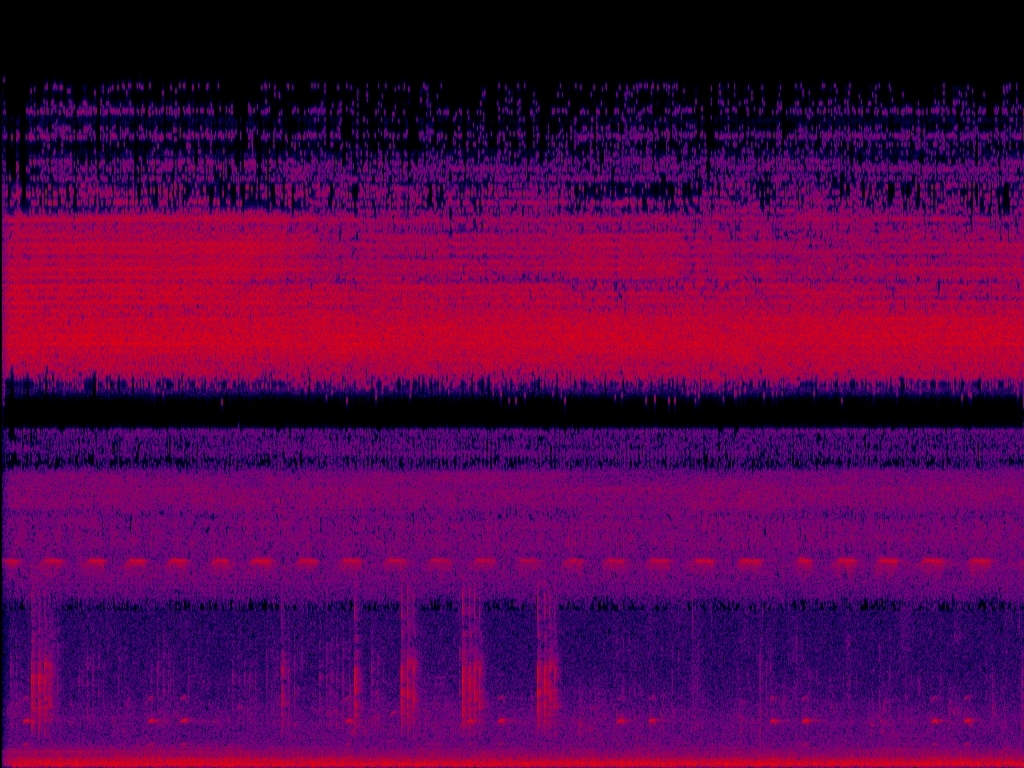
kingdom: Animalia
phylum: Chordata
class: Aves
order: Gruiformes
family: Rallidae
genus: Rallina
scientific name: Rallina eurizonoides
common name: Slaty-legged crake
